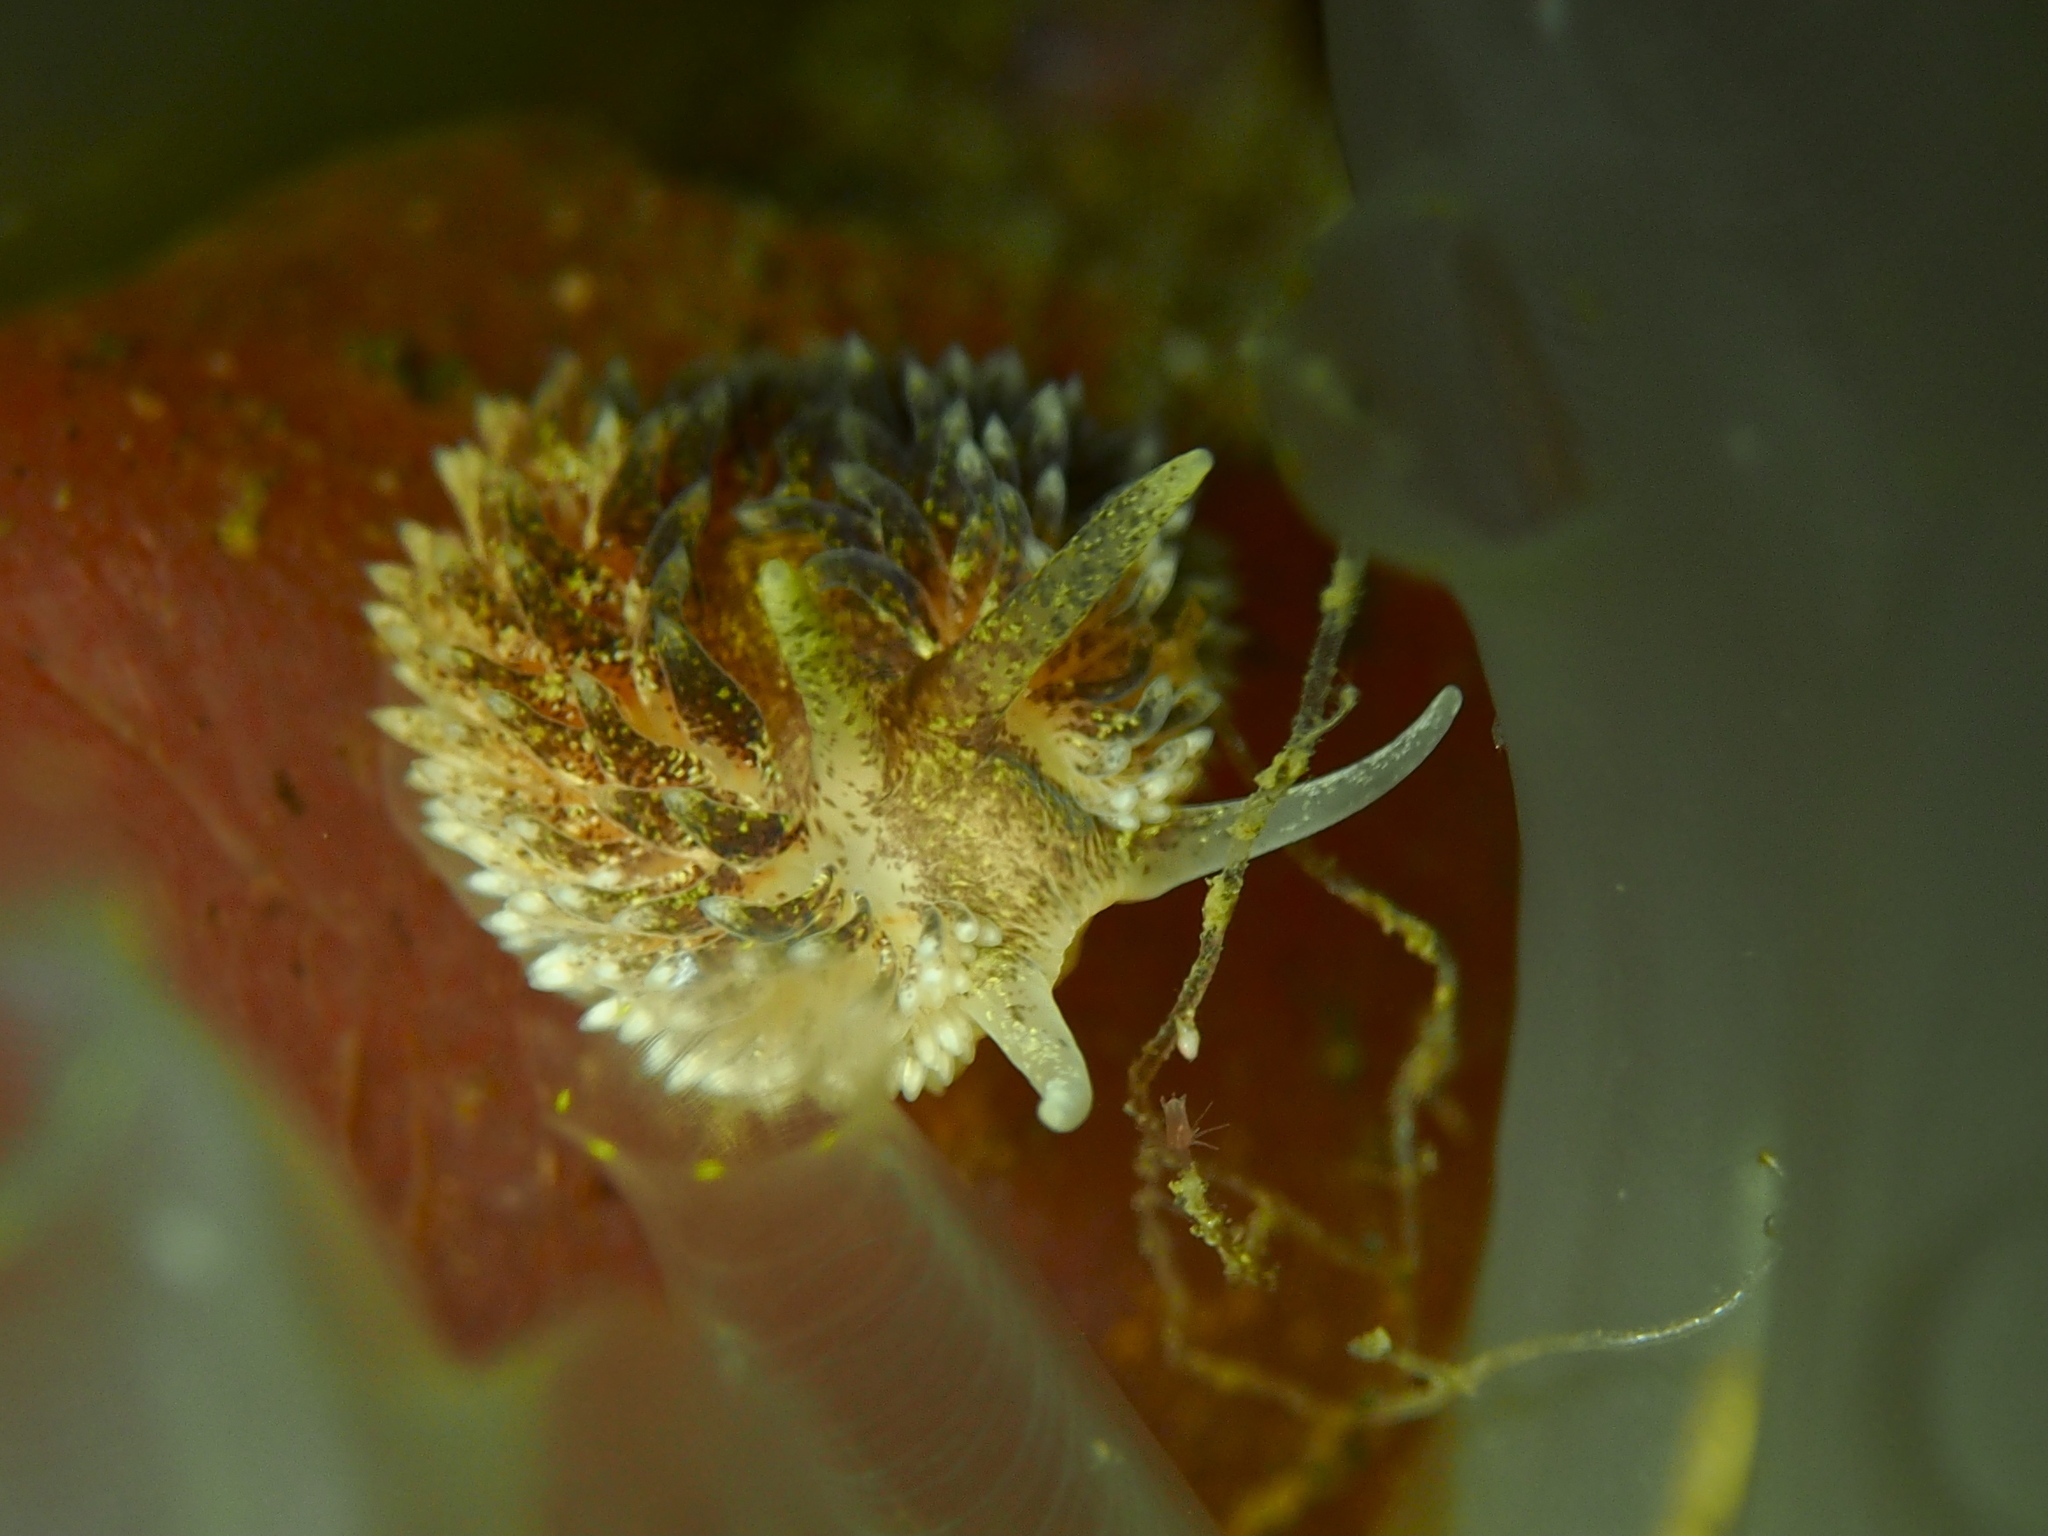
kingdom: Animalia
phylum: Mollusca
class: Gastropoda
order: Nudibranchia
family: Aeolidiidae
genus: Aeolidia
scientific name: Aeolidia papillosa
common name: Common grey sea slug
